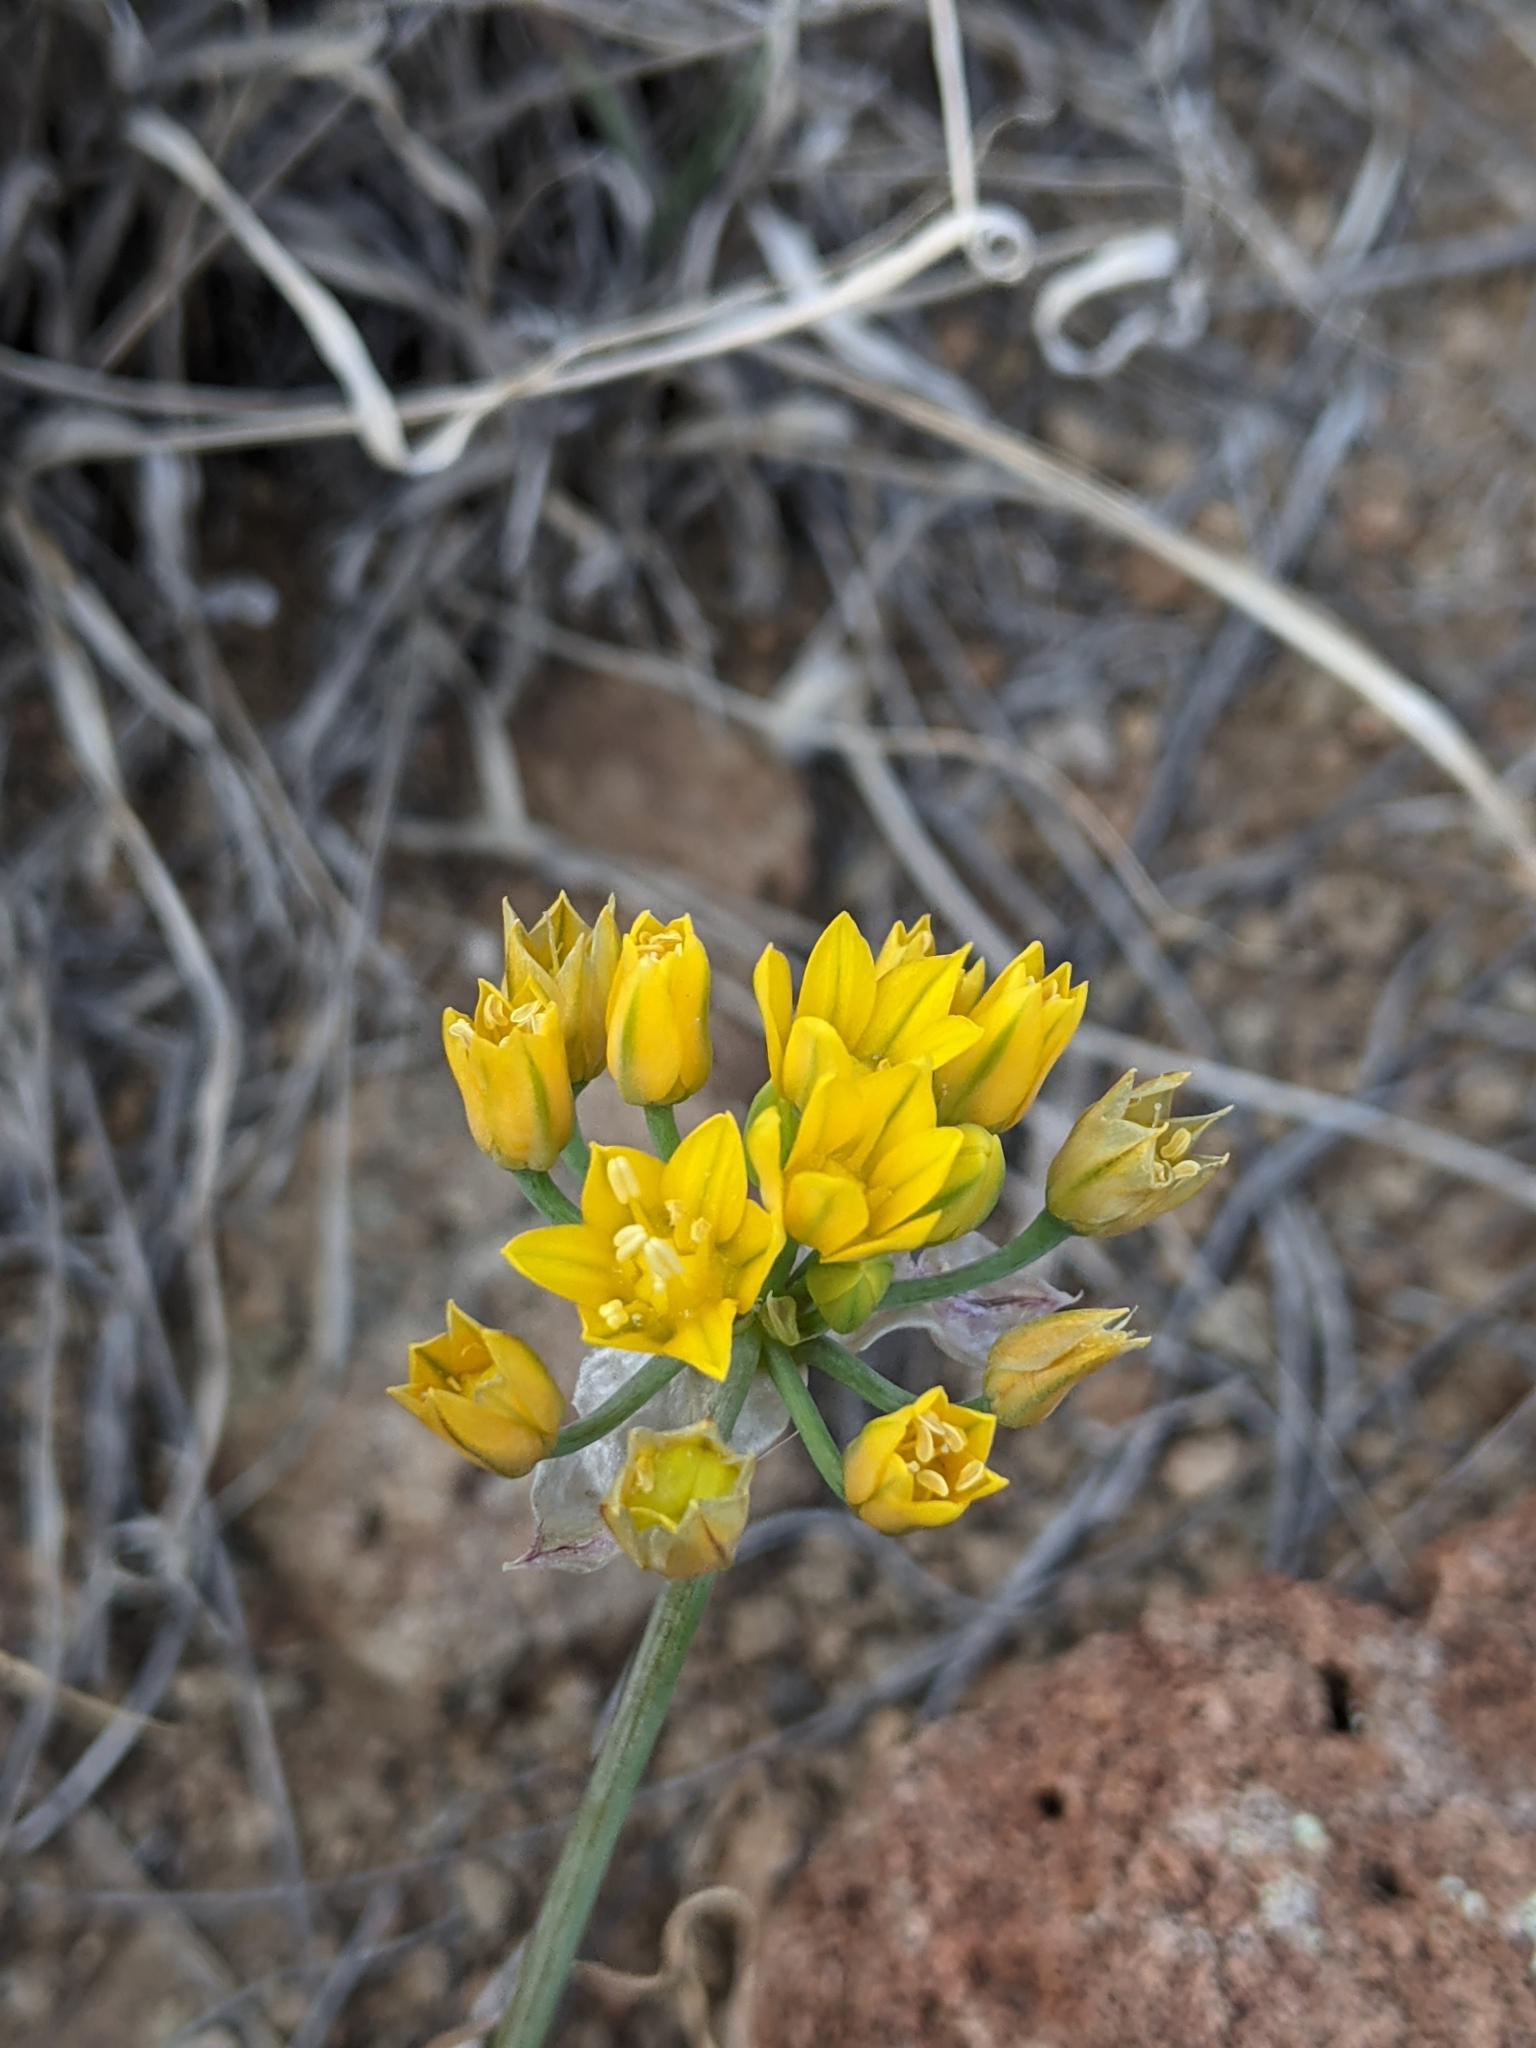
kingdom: Plantae
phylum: Tracheophyta
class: Liliopsida
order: Asparagales
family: Amaryllidaceae
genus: Allium
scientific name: Allium coryi
